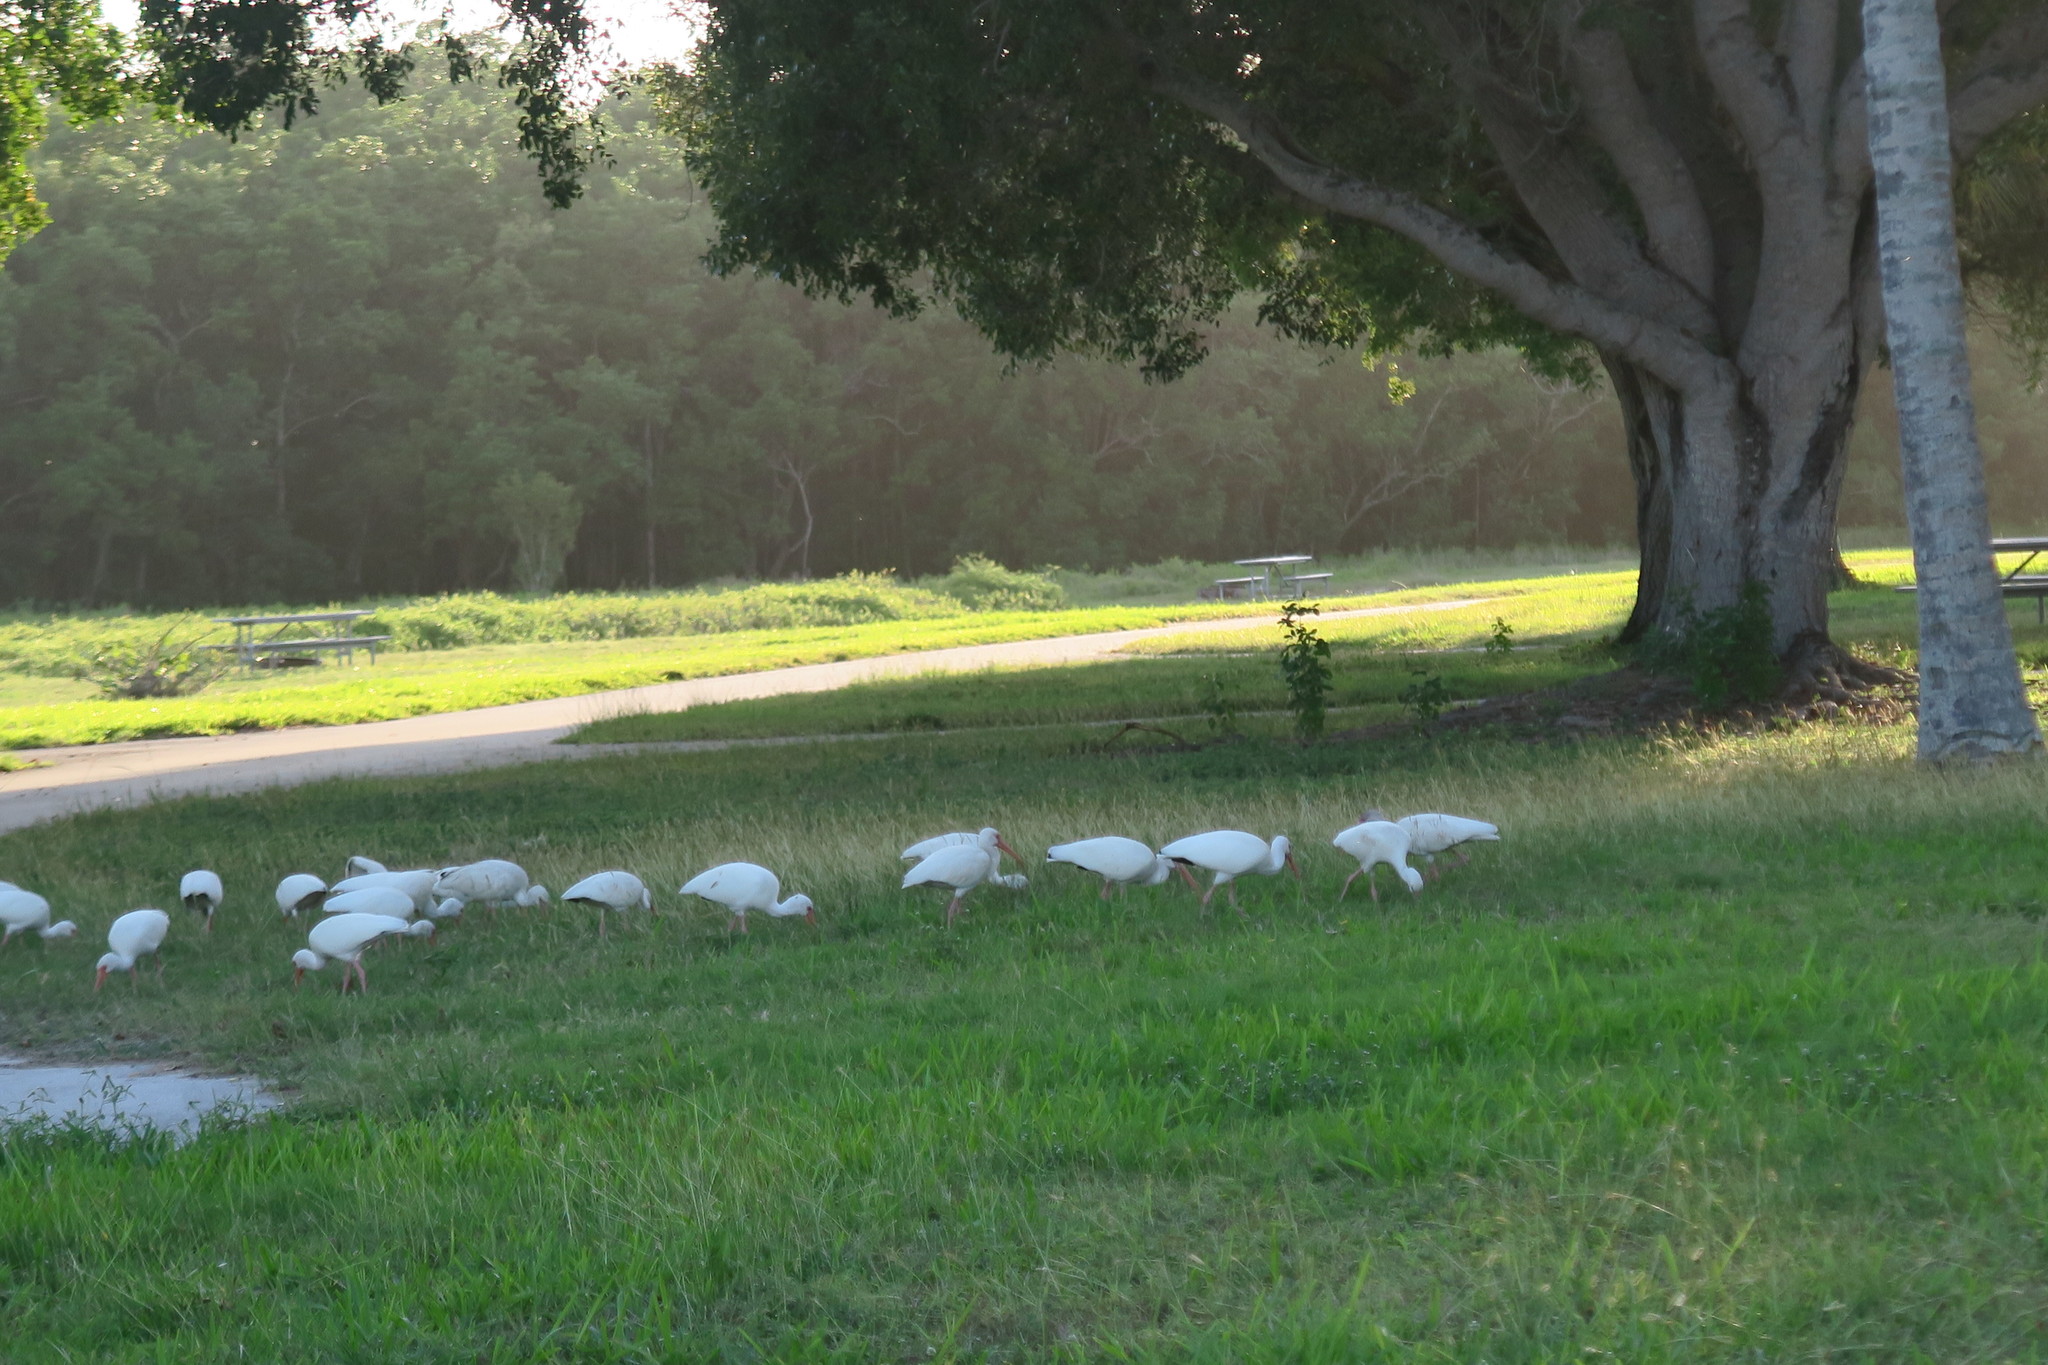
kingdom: Animalia
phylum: Chordata
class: Aves
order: Pelecaniformes
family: Threskiornithidae
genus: Eudocimus
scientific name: Eudocimus albus
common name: White ibis
